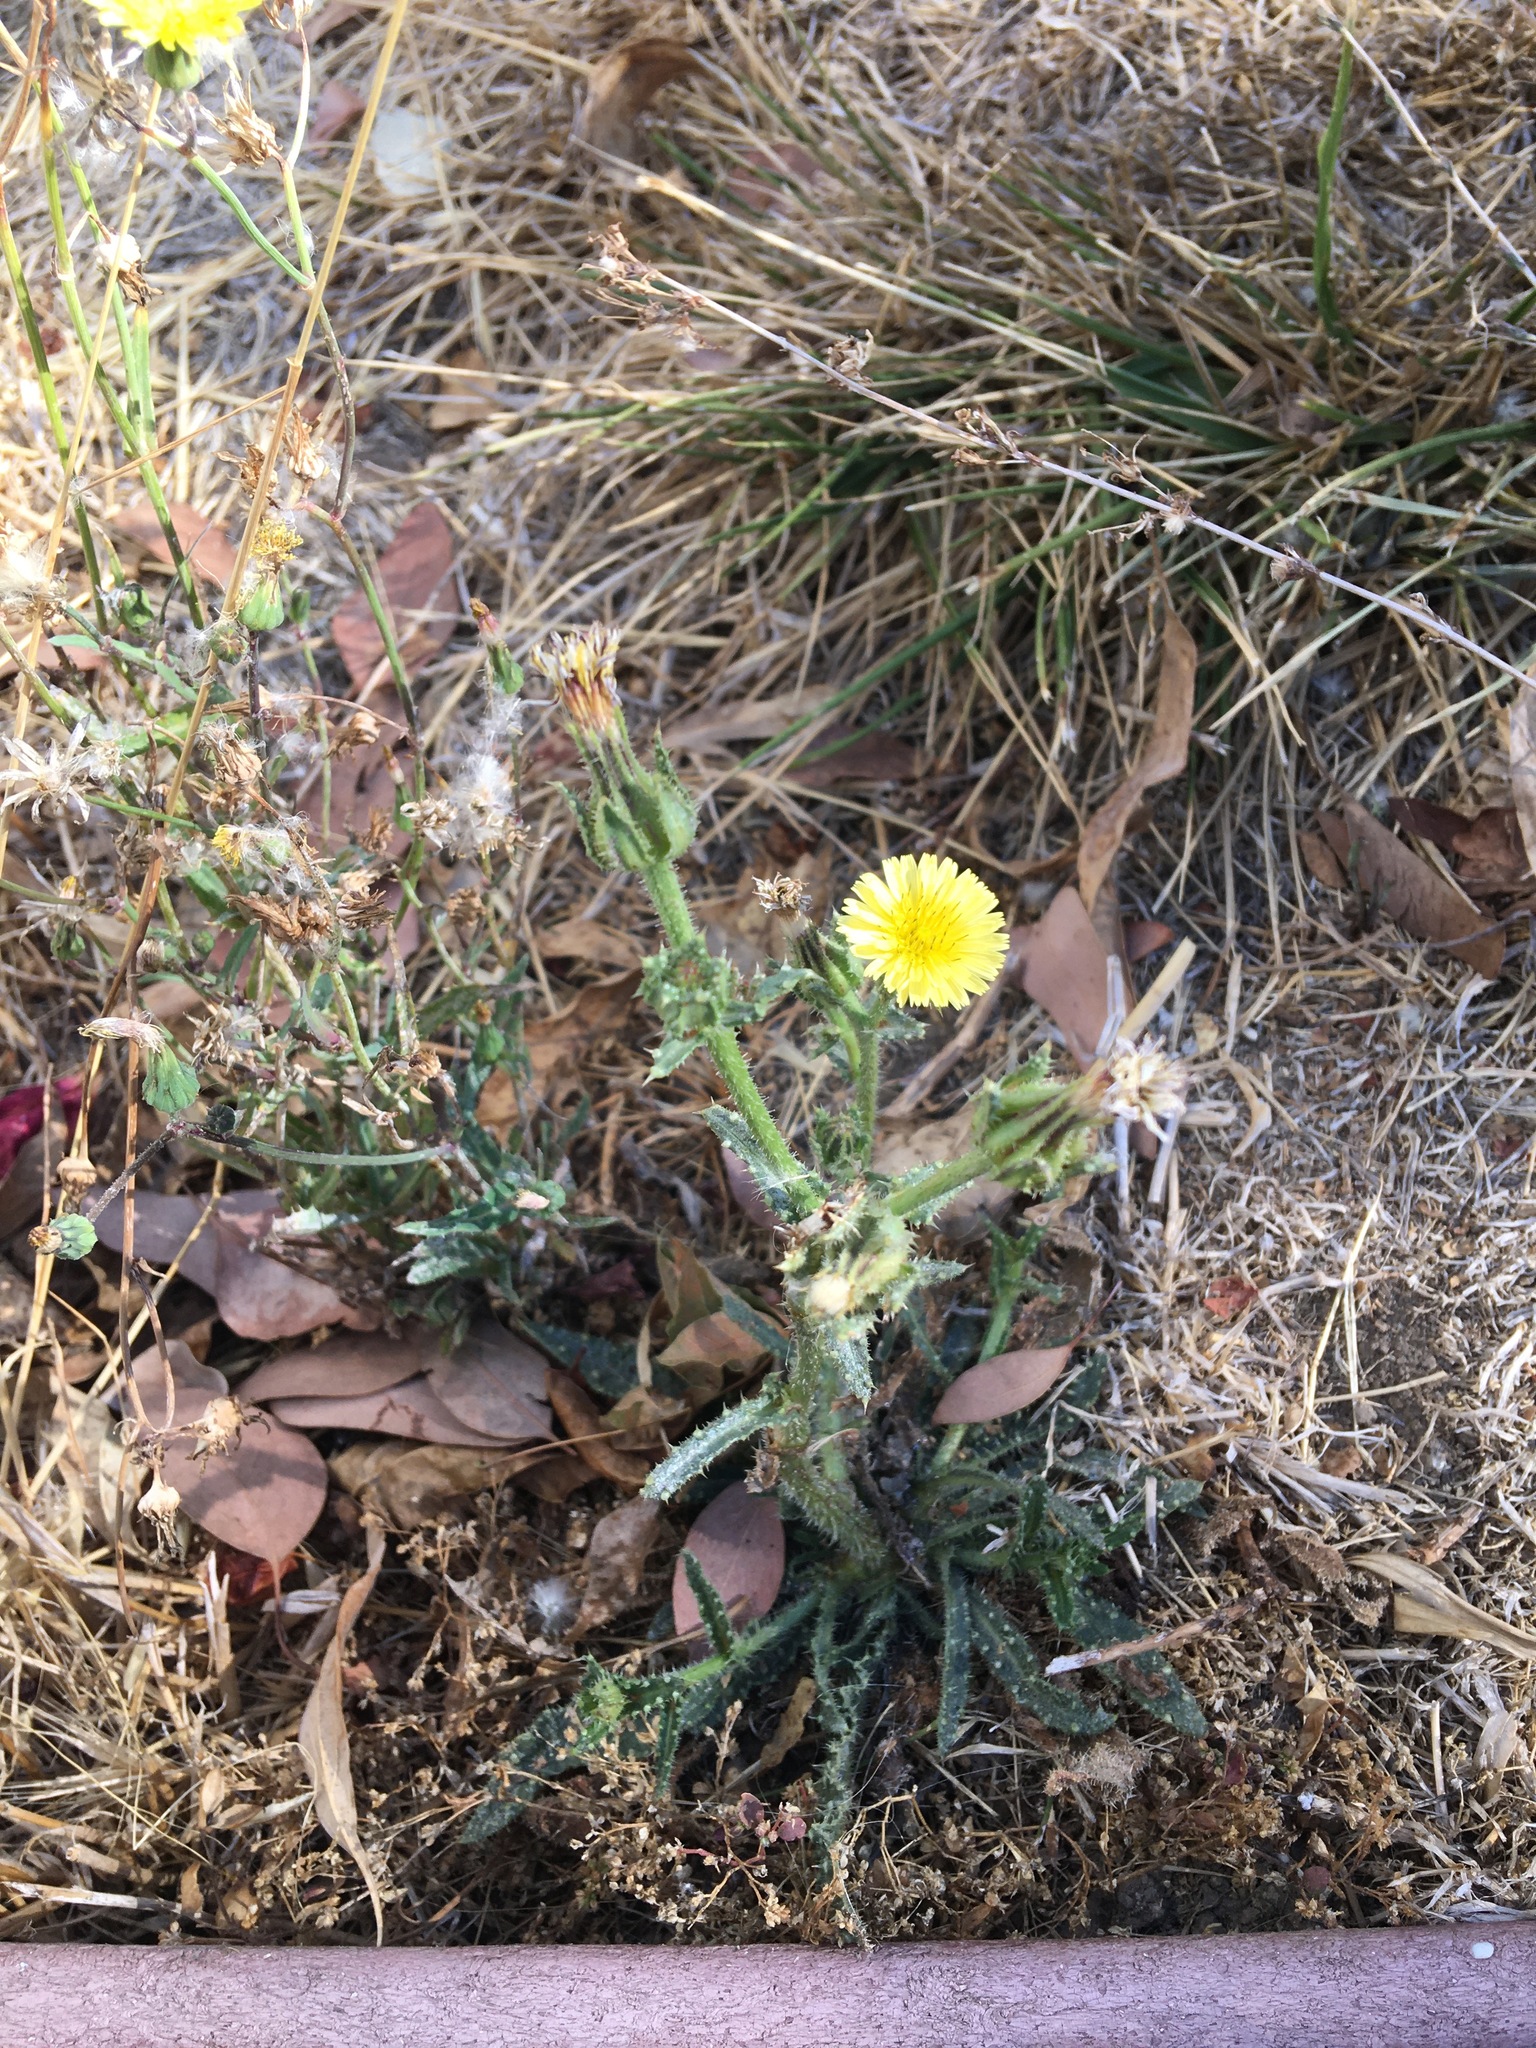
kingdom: Plantae
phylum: Tracheophyta
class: Magnoliopsida
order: Asterales
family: Asteraceae
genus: Helminthotheca
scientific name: Helminthotheca echioides
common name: Ox-tongue
